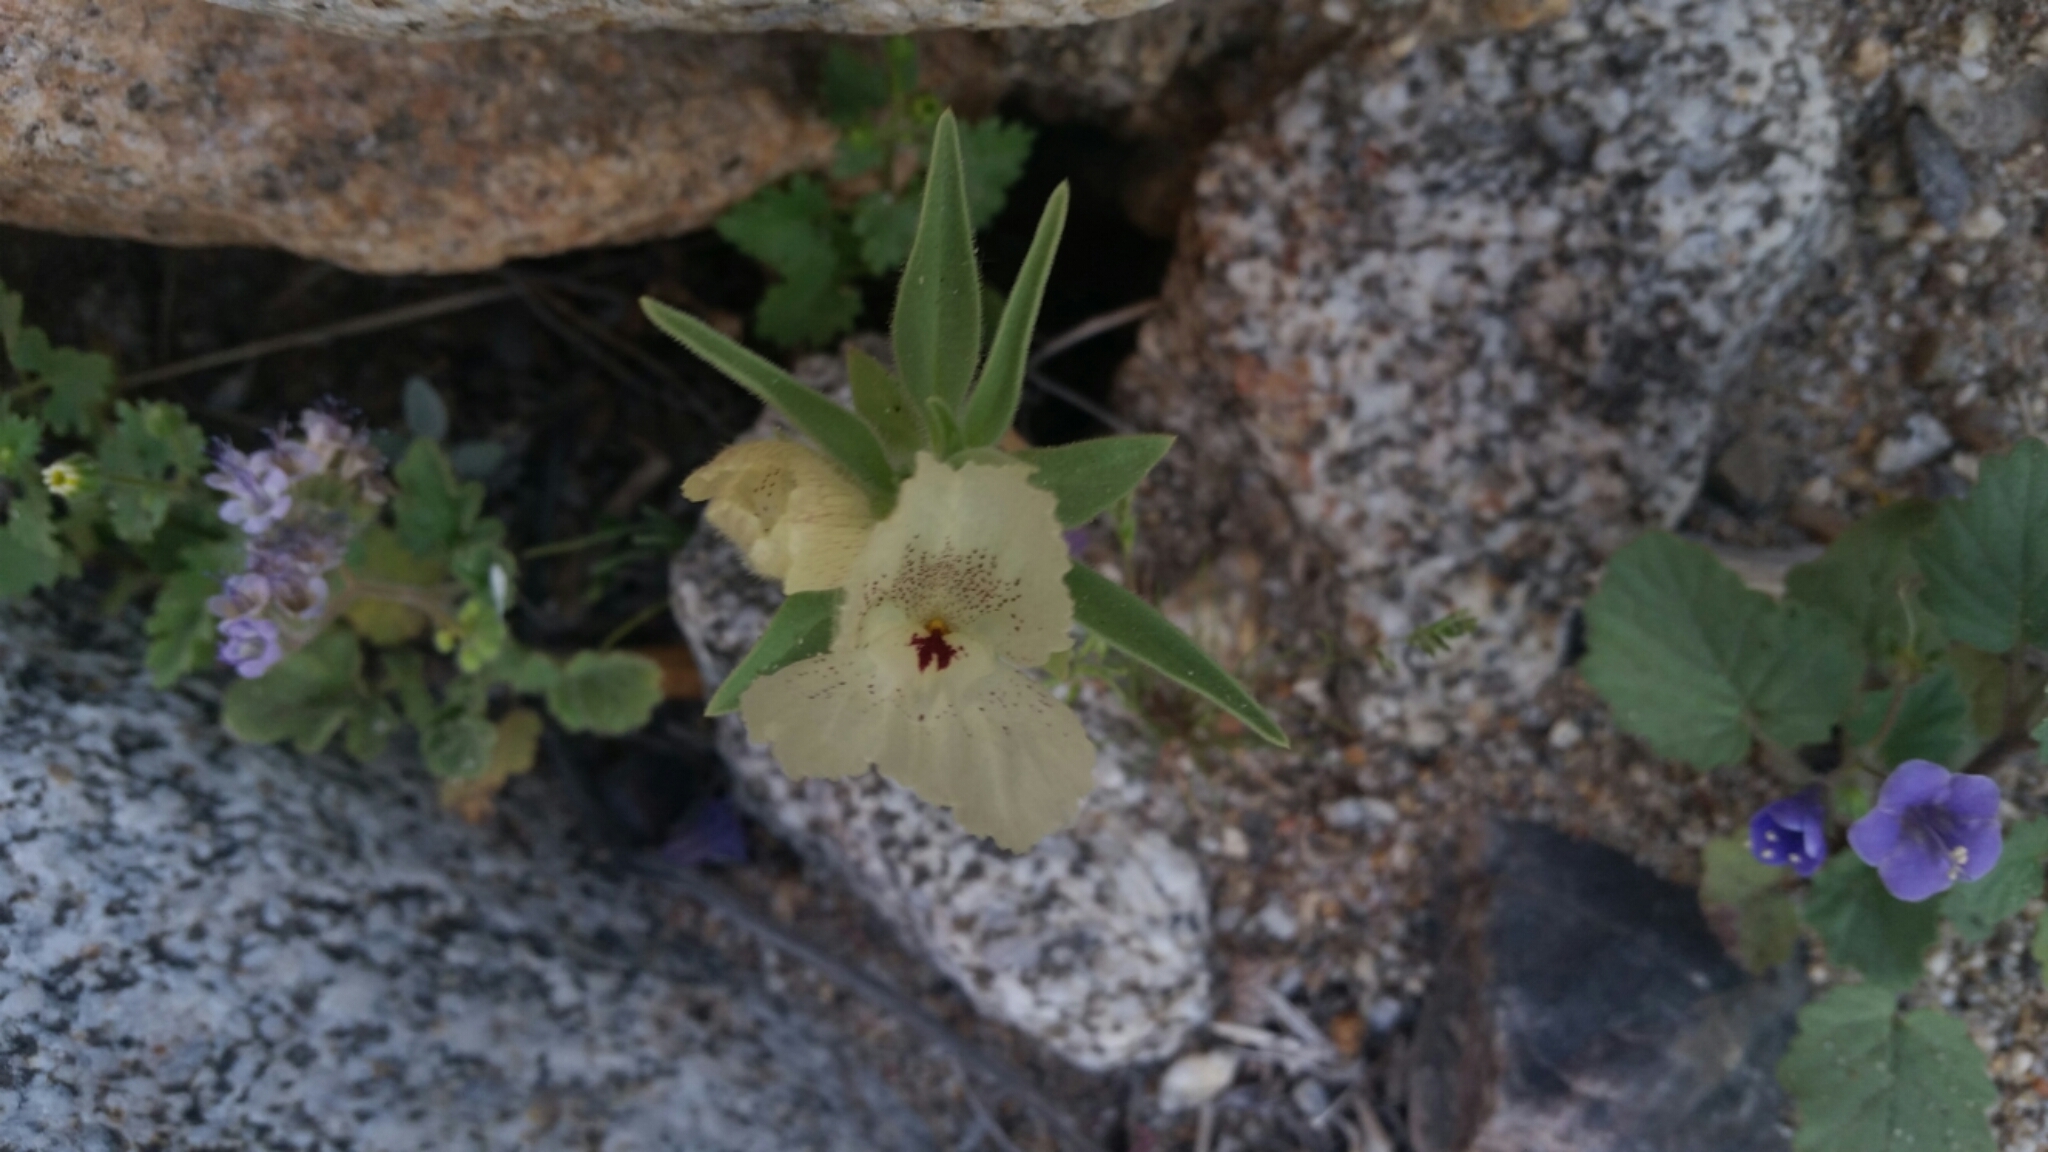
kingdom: Plantae
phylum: Tracheophyta
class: Magnoliopsida
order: Lamiales
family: Plantaginaceae
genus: Mohavea
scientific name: Mohavea confertiflora
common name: Ghost flower
